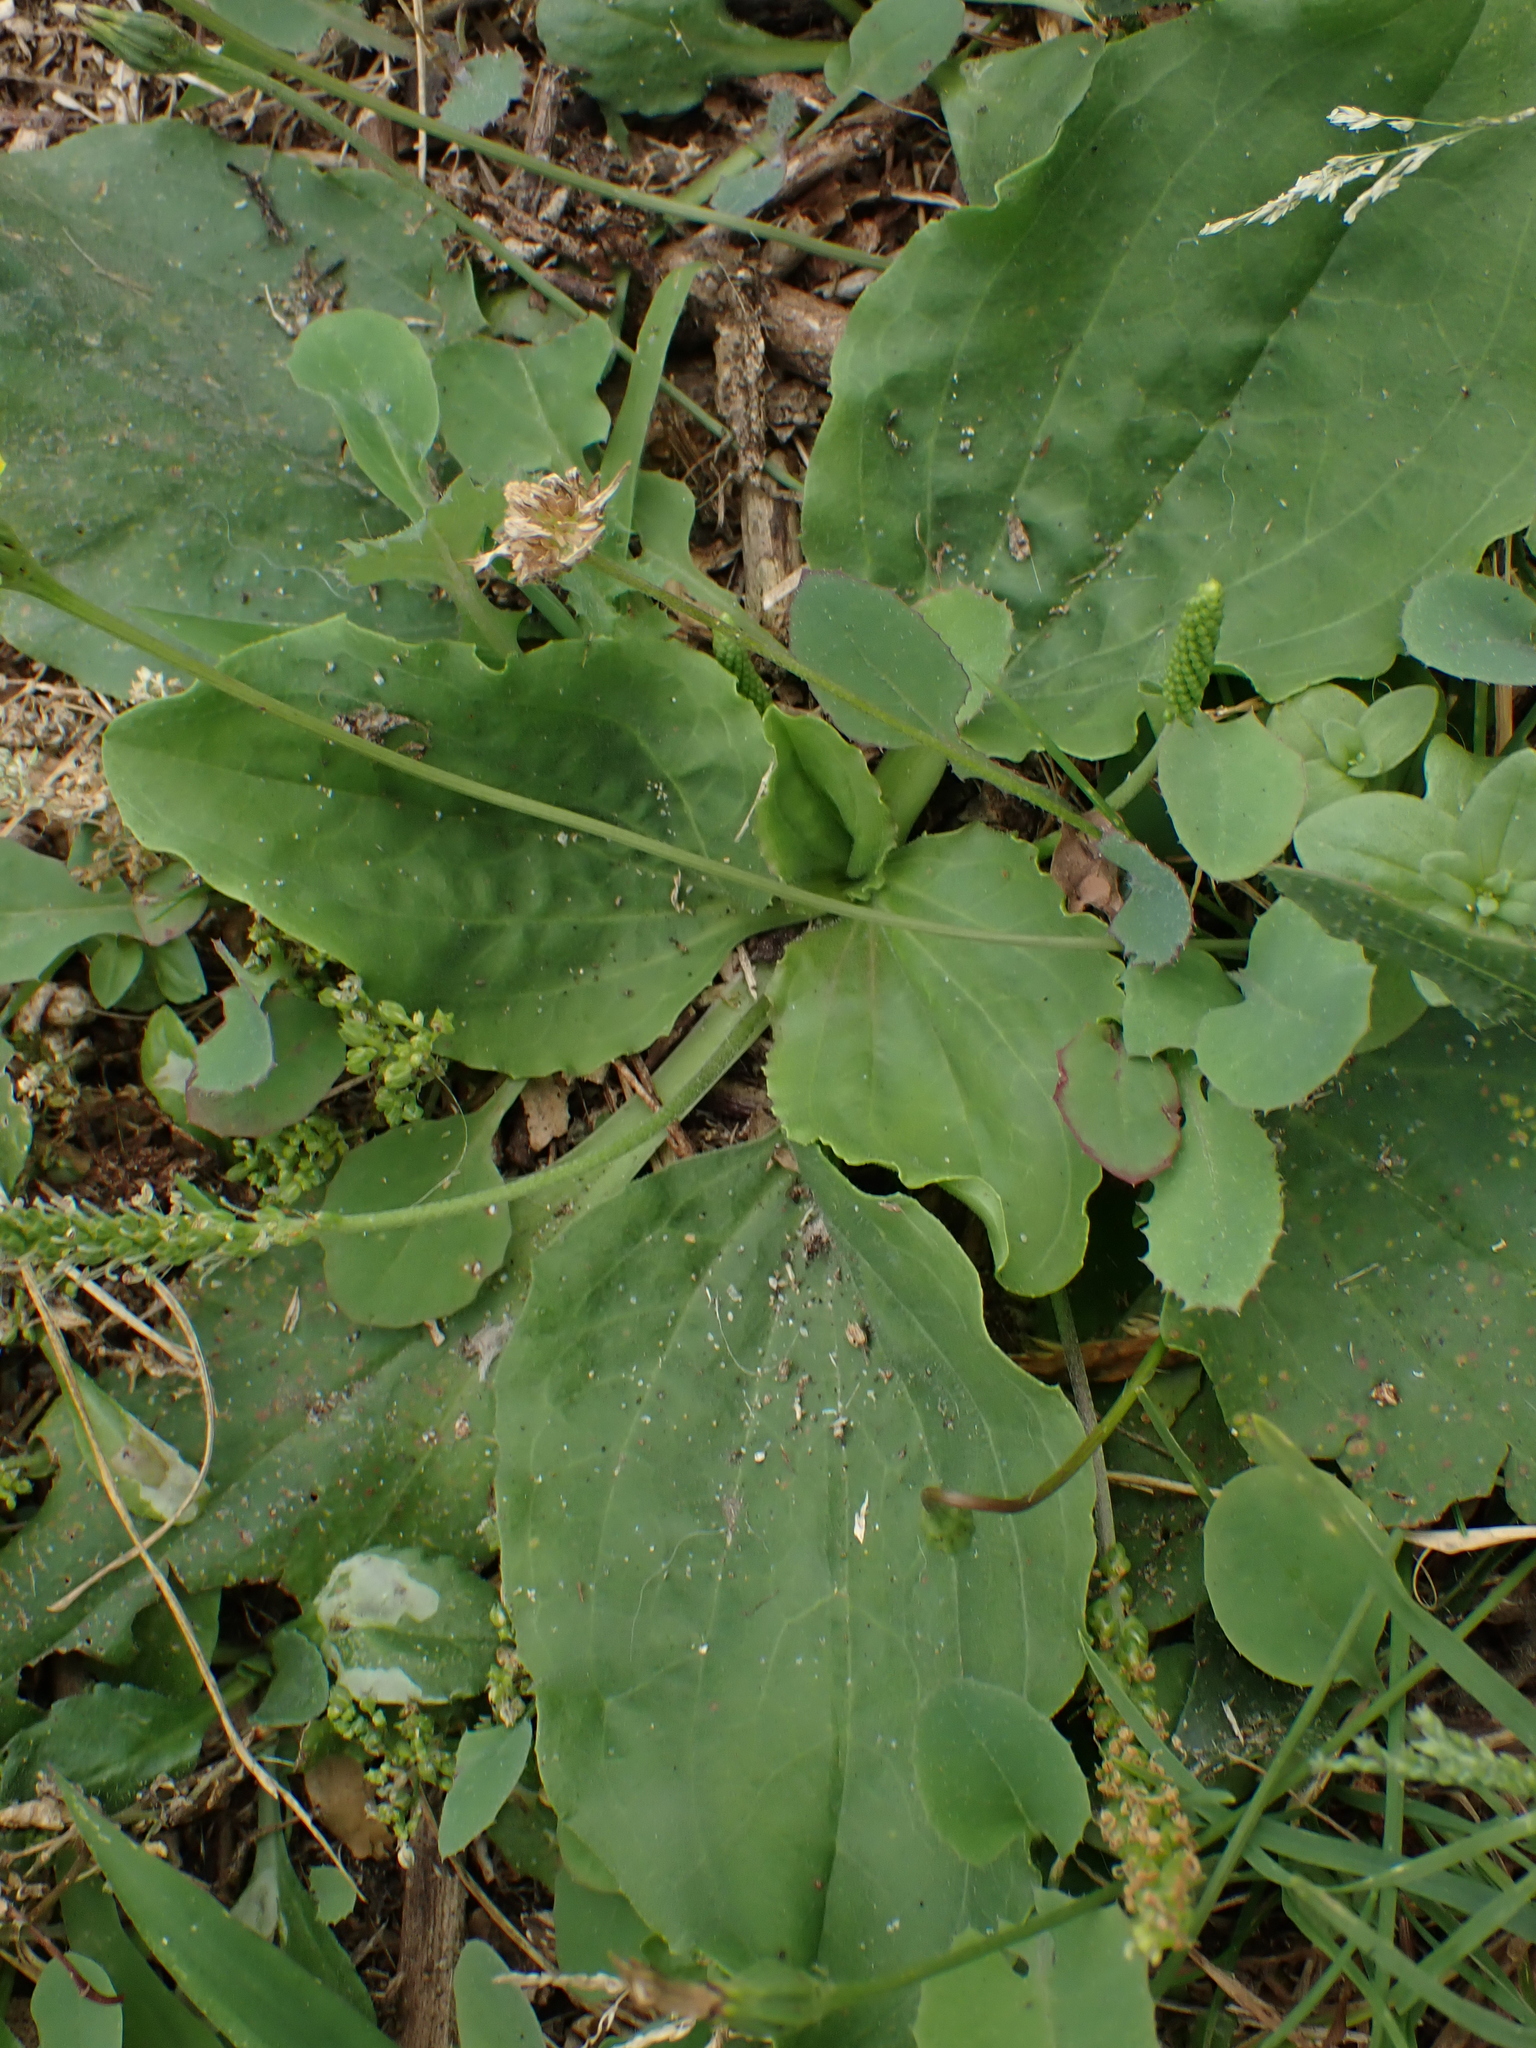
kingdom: Plantae
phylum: Tracheophyta
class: Magnoliopsida
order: Lamiales
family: Plantaginaceae
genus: Plantago
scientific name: Plantago major
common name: Common plantain
